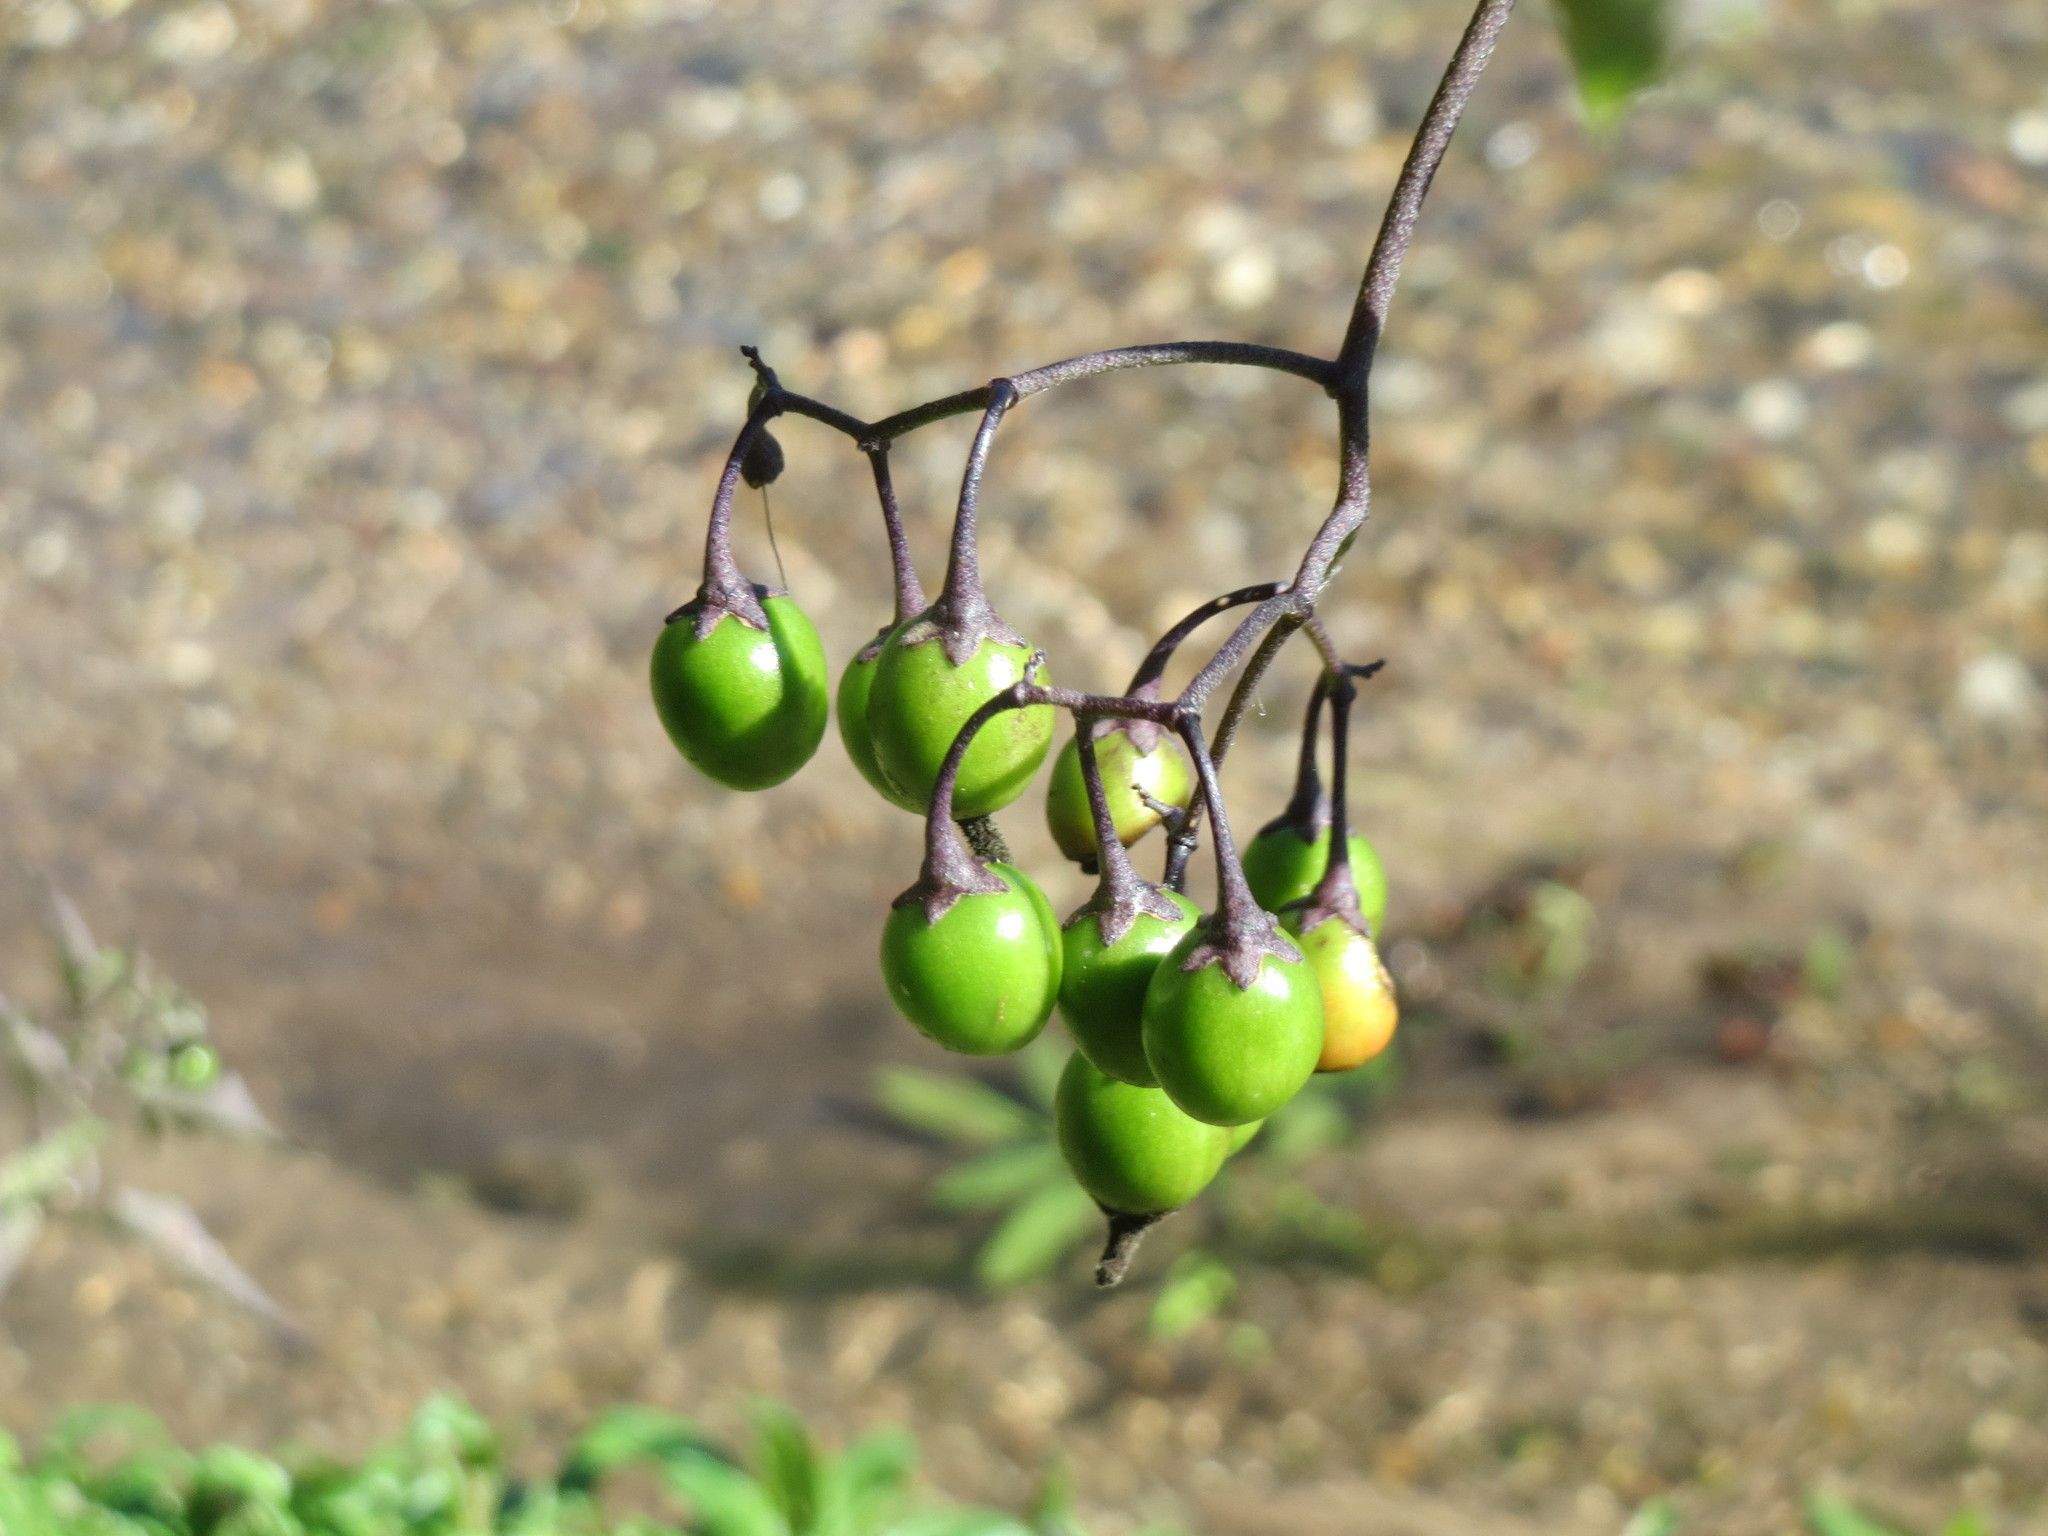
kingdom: Plantae
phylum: Tracheophyta
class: Magnoliopsida
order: Solanales
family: Solanaceae
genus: Solanum
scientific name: Solanum dulcamara
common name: Climbing nightshade
